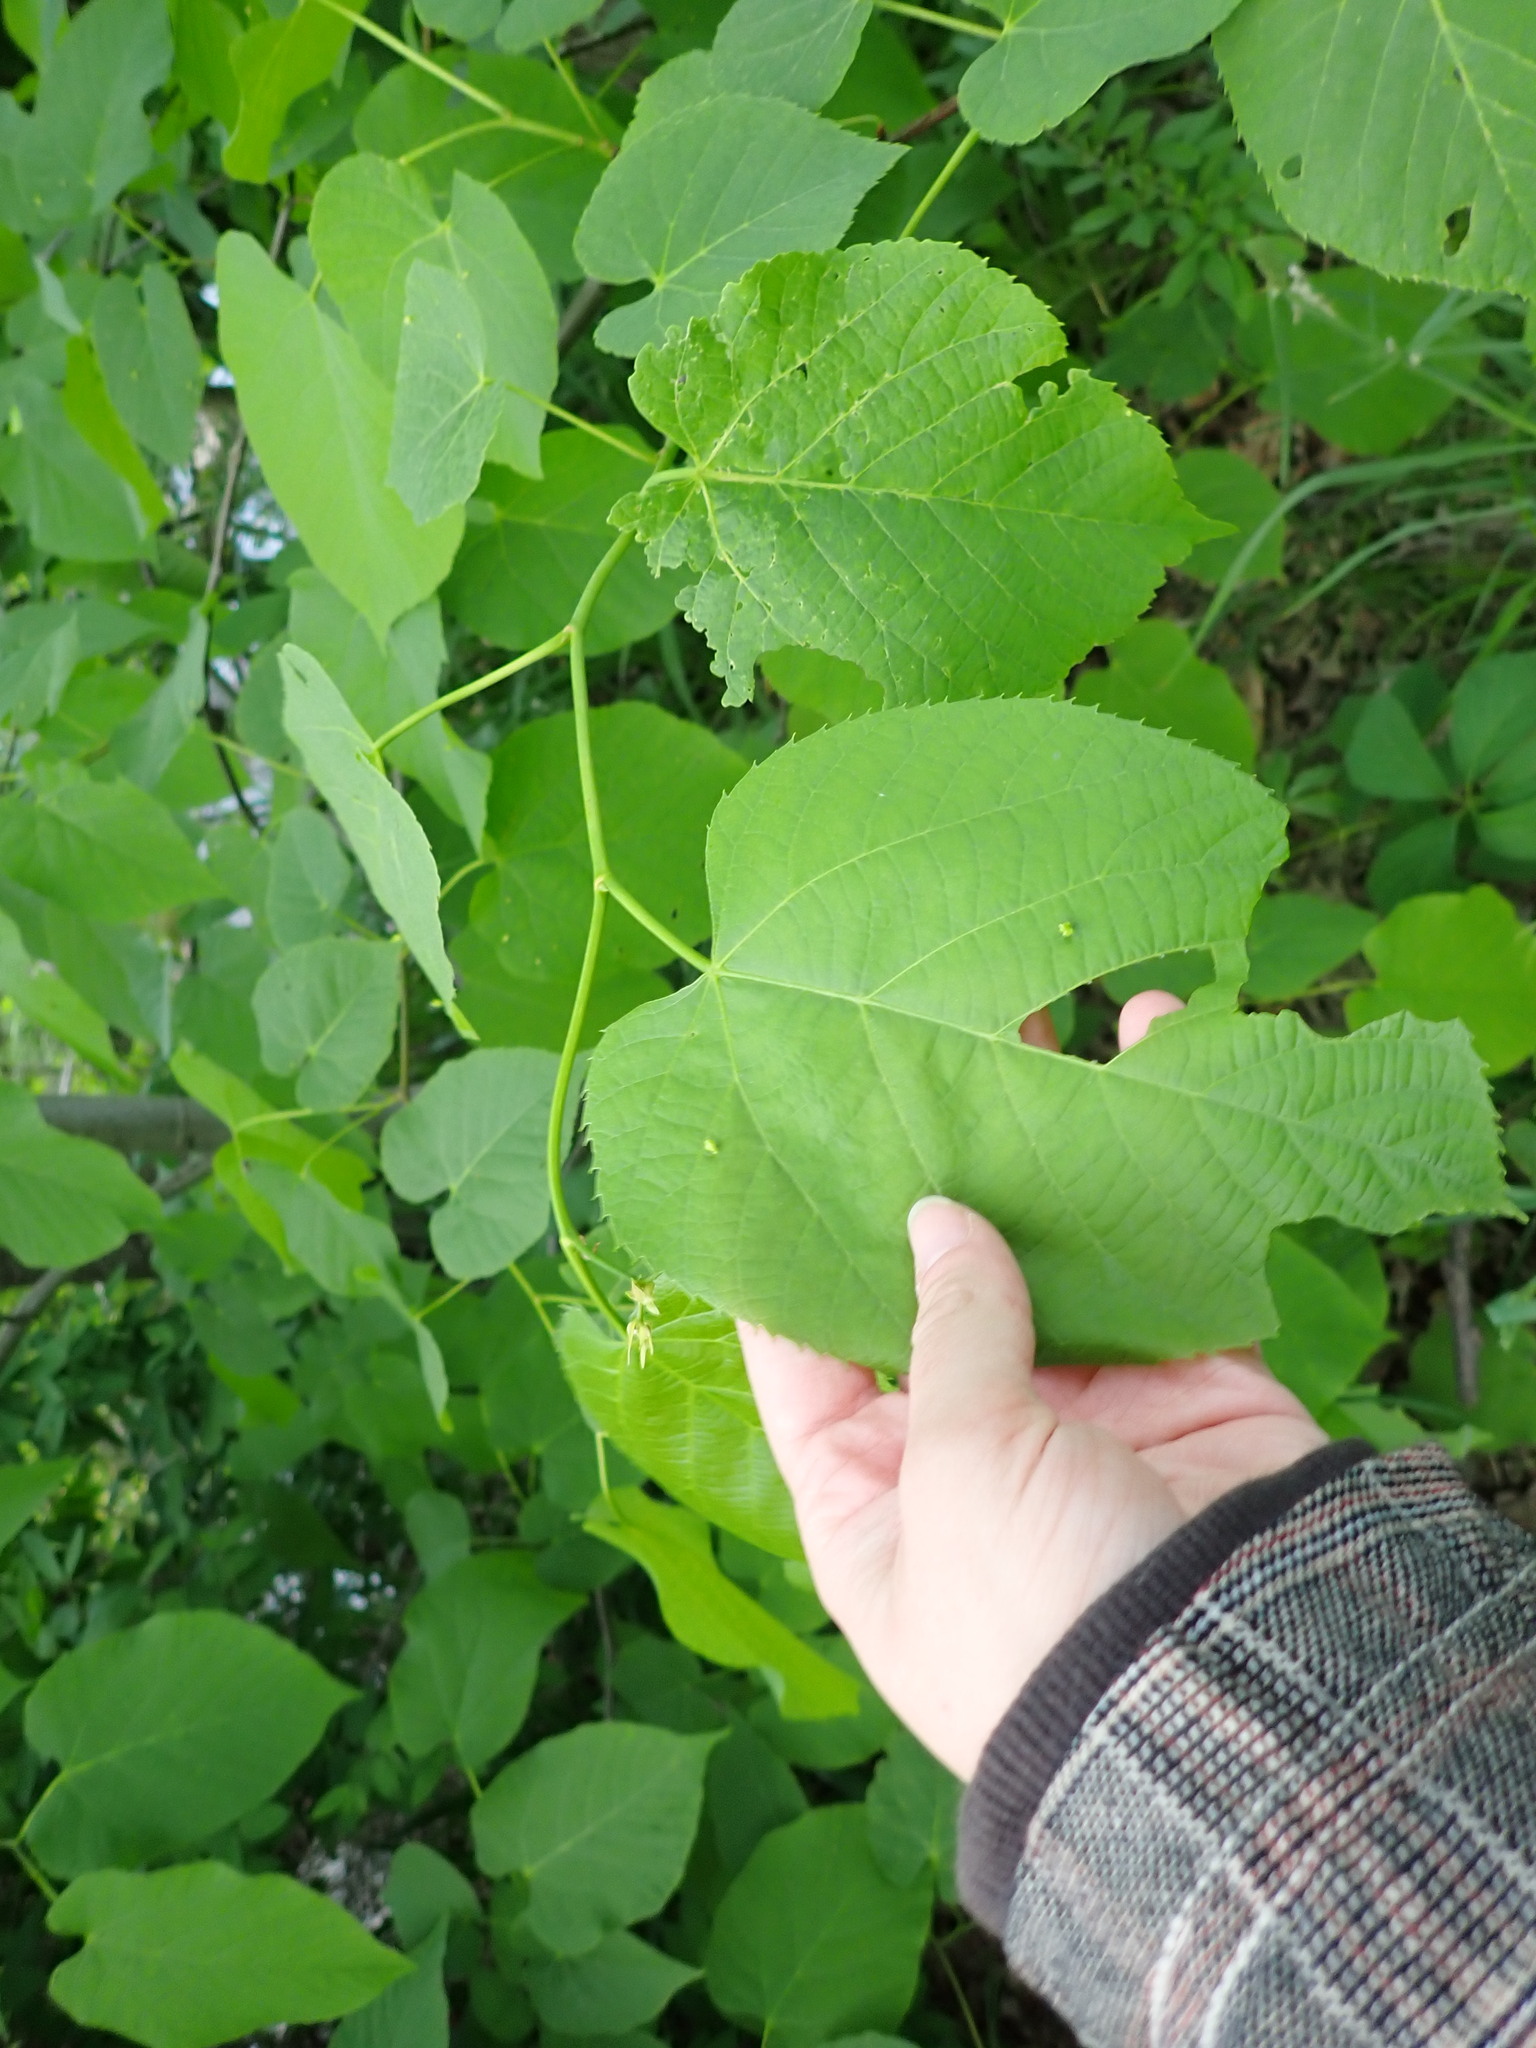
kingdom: Plantae
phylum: Tracheophyta
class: Magnoliopsida
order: Malvales
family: Malvaceae
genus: Tilia
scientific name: Tilia americana
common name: Basswood
